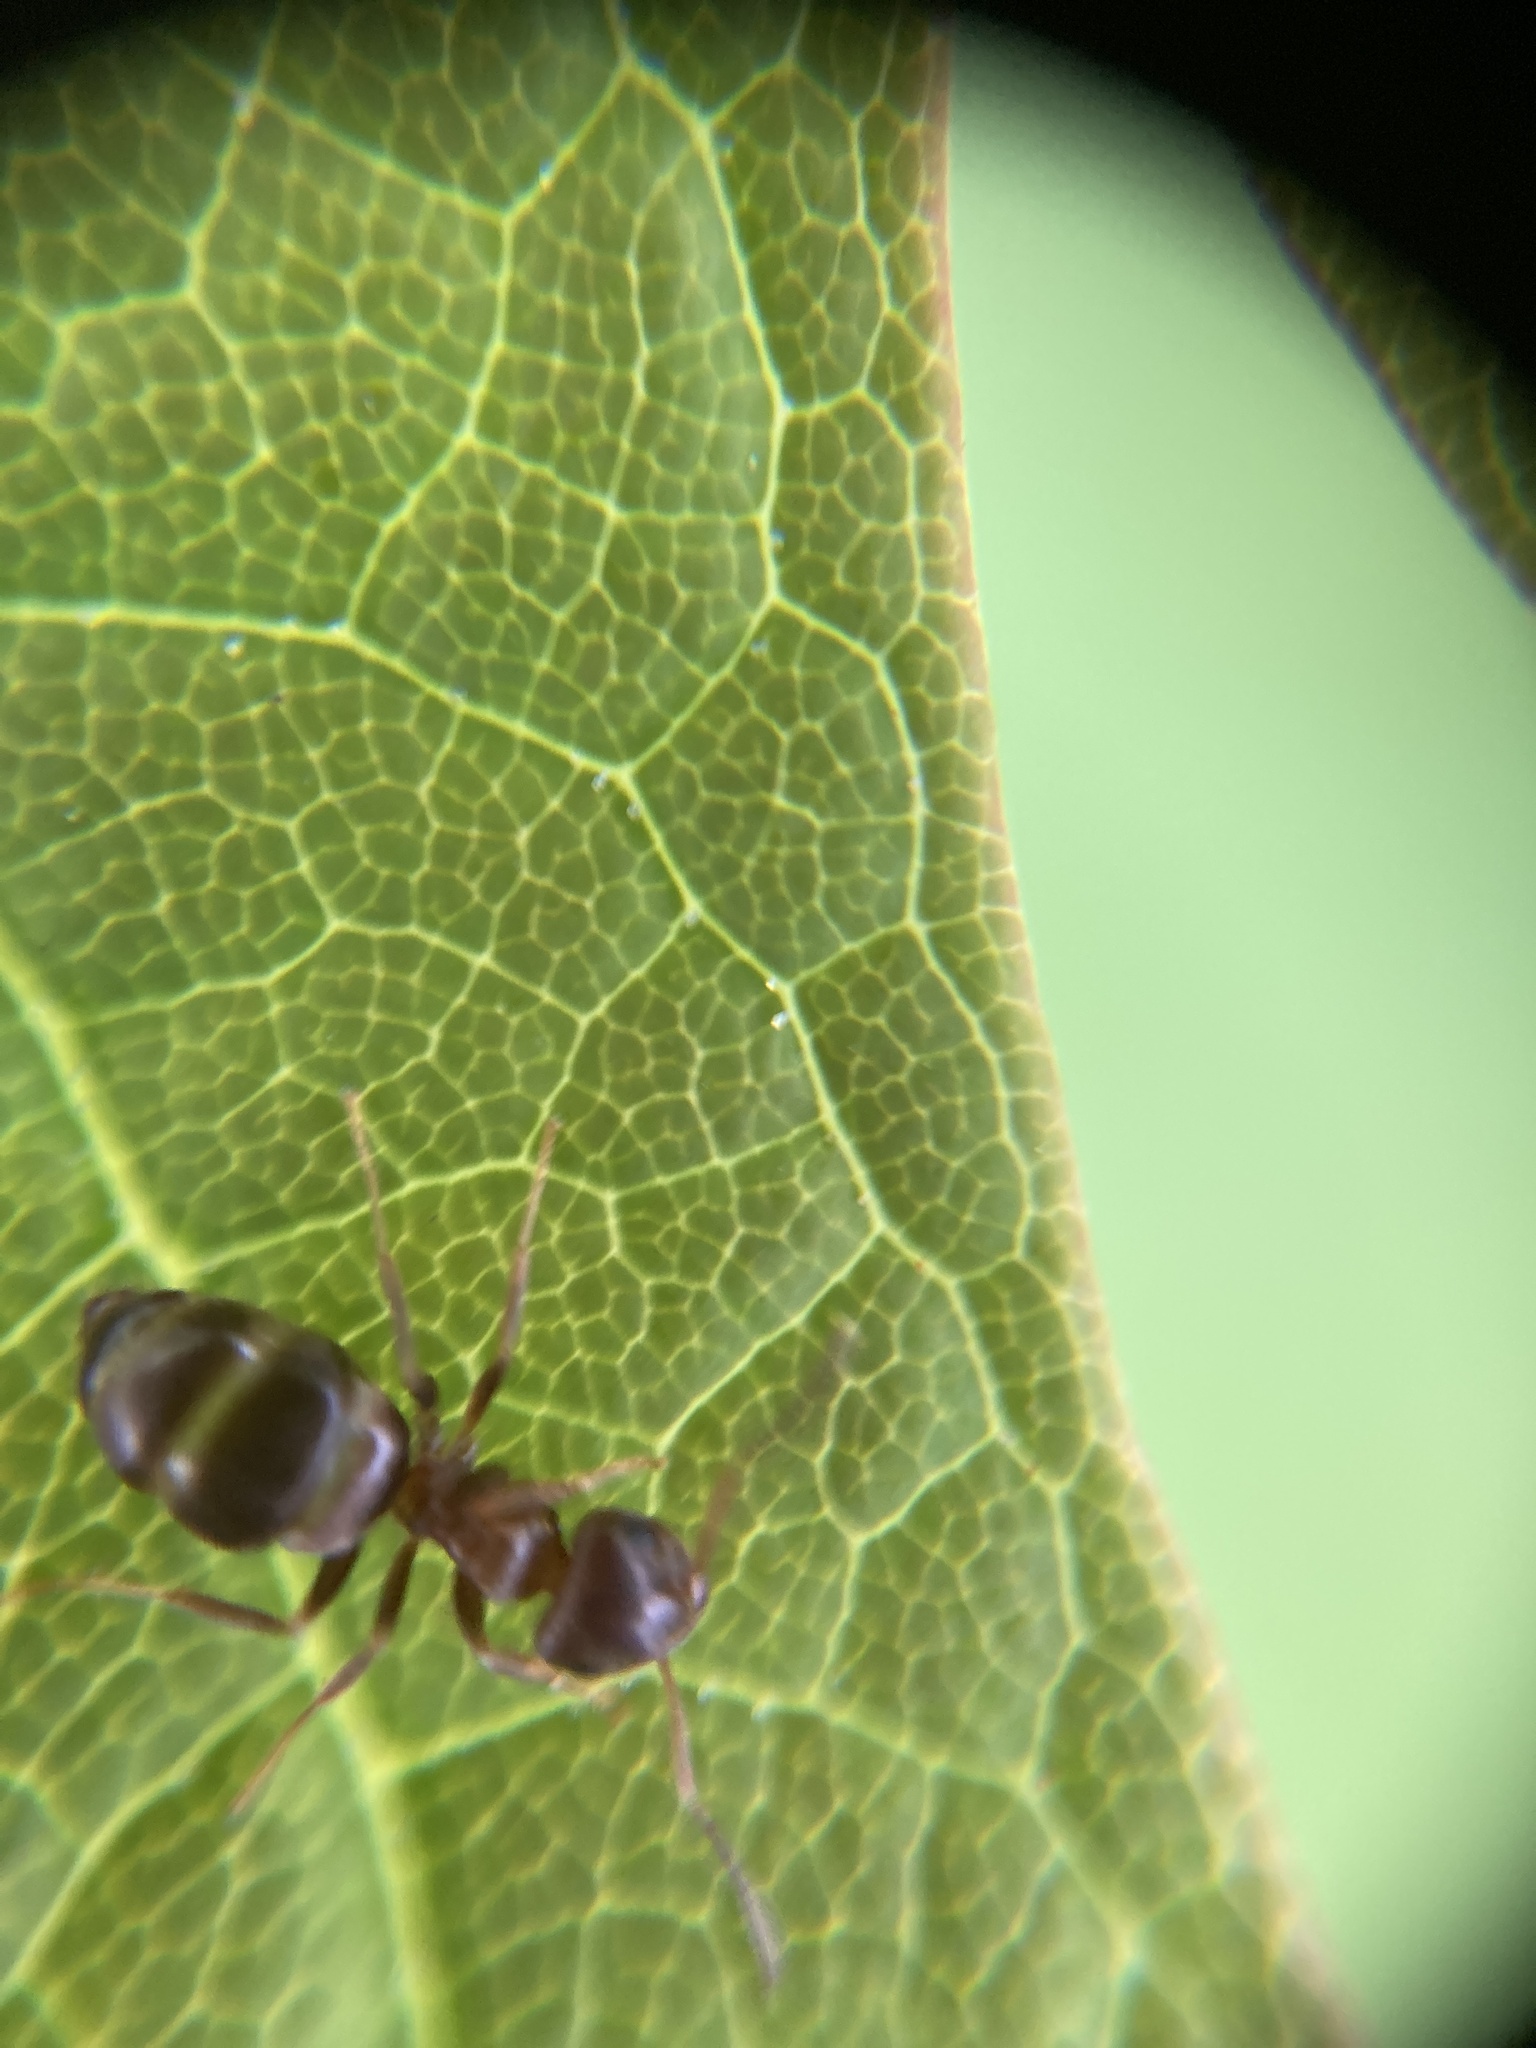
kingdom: Animalia
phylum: Arthropoda
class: Insecta
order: Hymenoptera
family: Formicidae
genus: Lasius
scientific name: Lasius brunneus
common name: Brown ant
